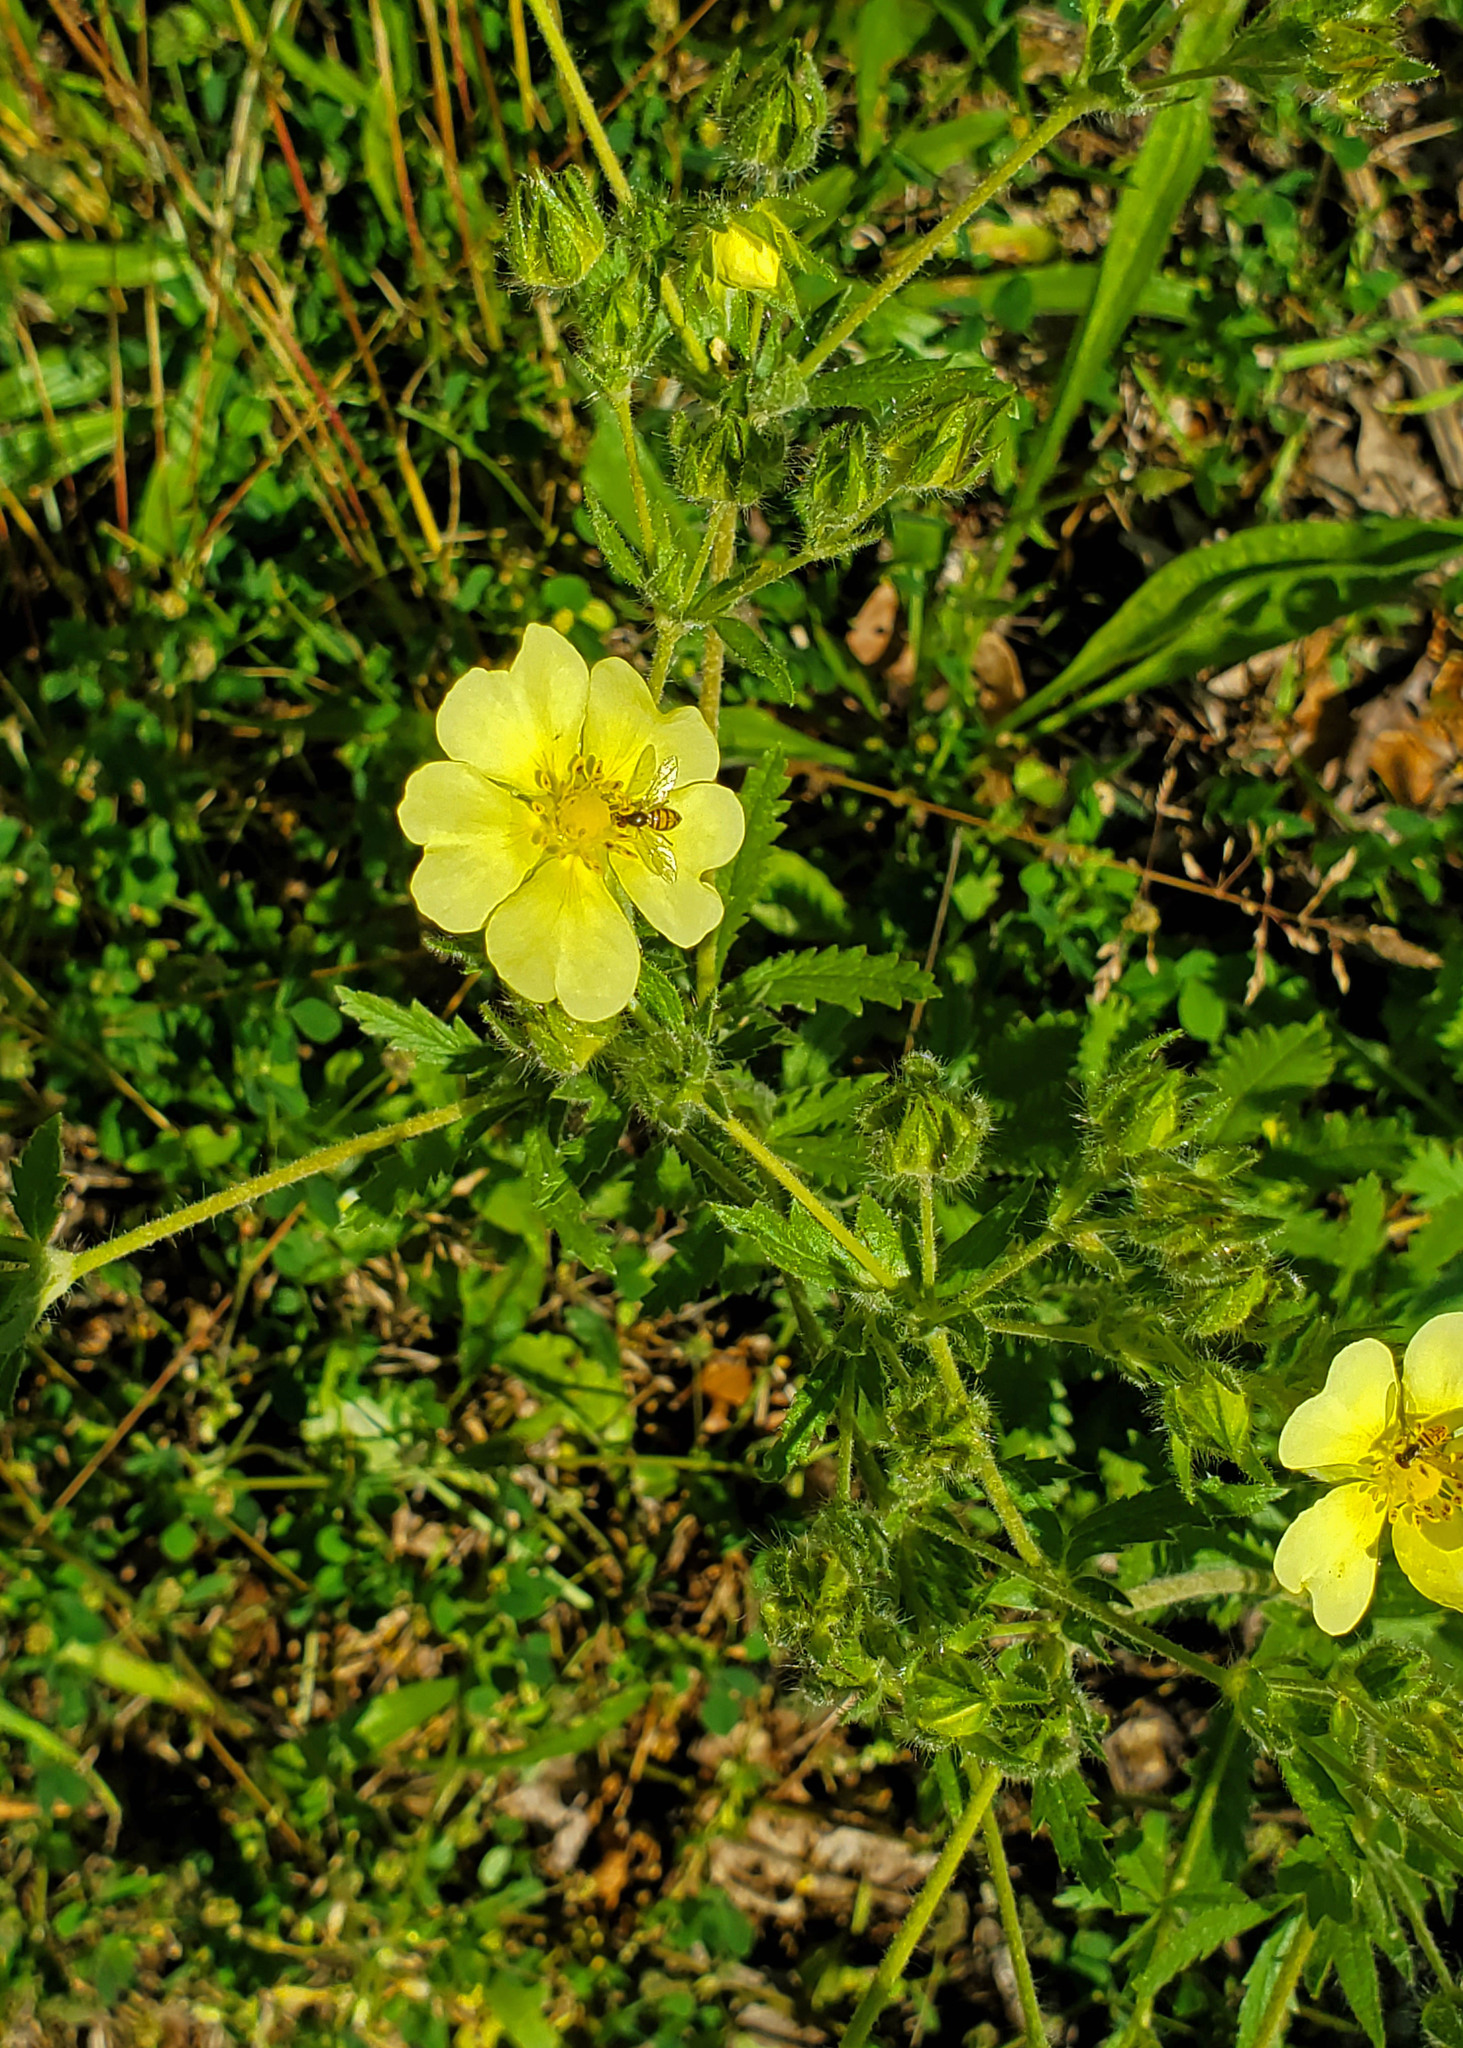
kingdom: Plantae
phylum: Tracheophyta
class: Magnoliopsida
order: Rosales
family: Rosaceae
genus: Potentilla
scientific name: Potentilla recta
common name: Sulphur cinquefoil
